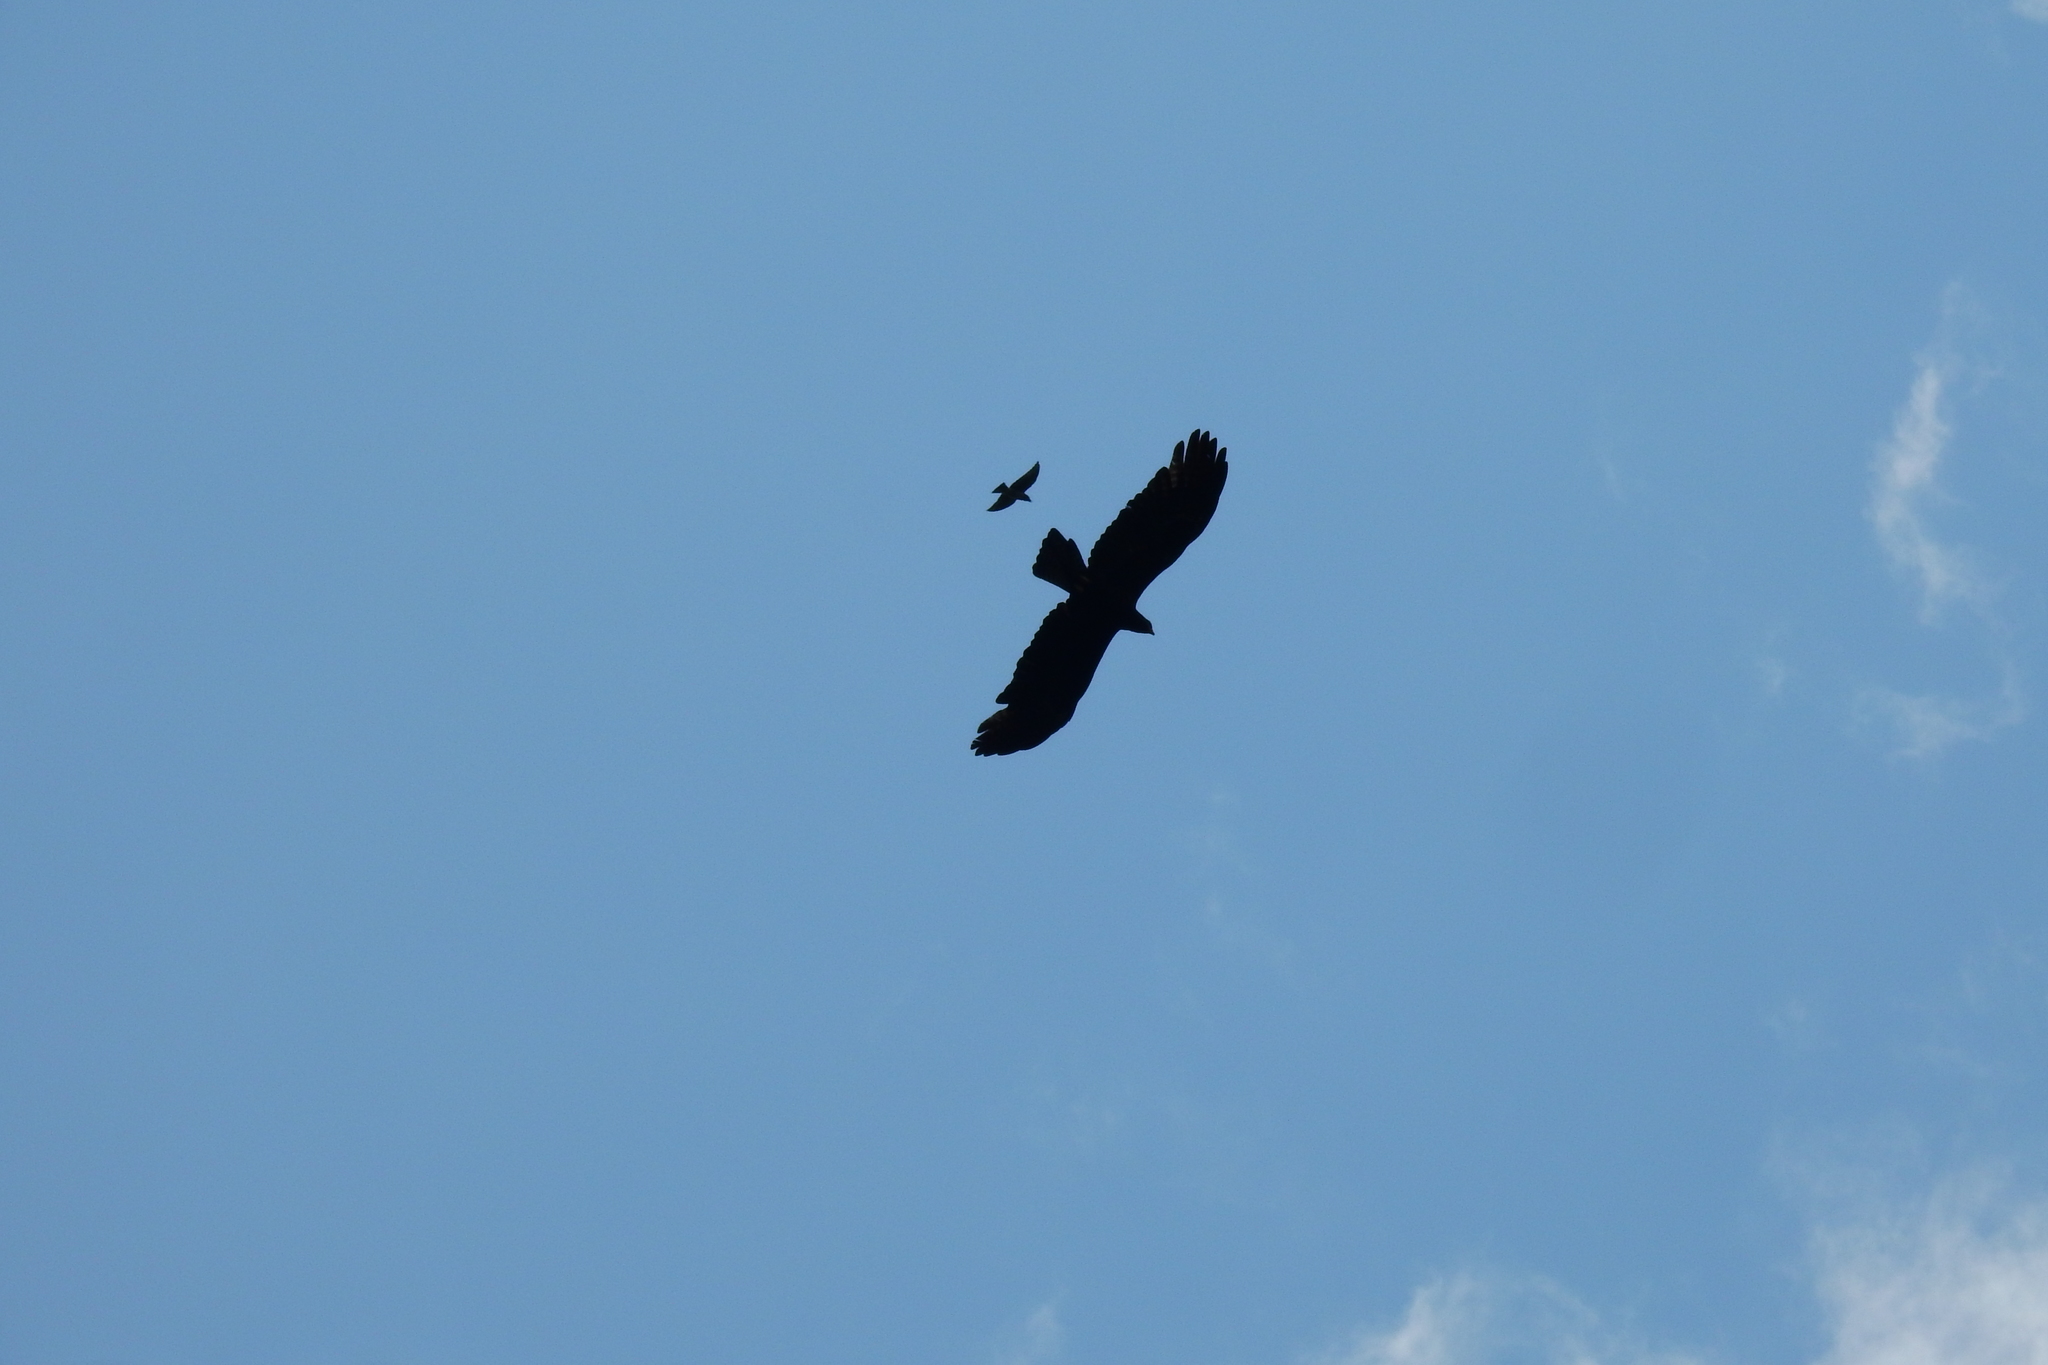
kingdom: Animalia
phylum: Chordata
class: Aves
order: Accipitriformes
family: Accipitridae
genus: Ictinaetus
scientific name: Ictinaetus malayensis
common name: Black eagle
